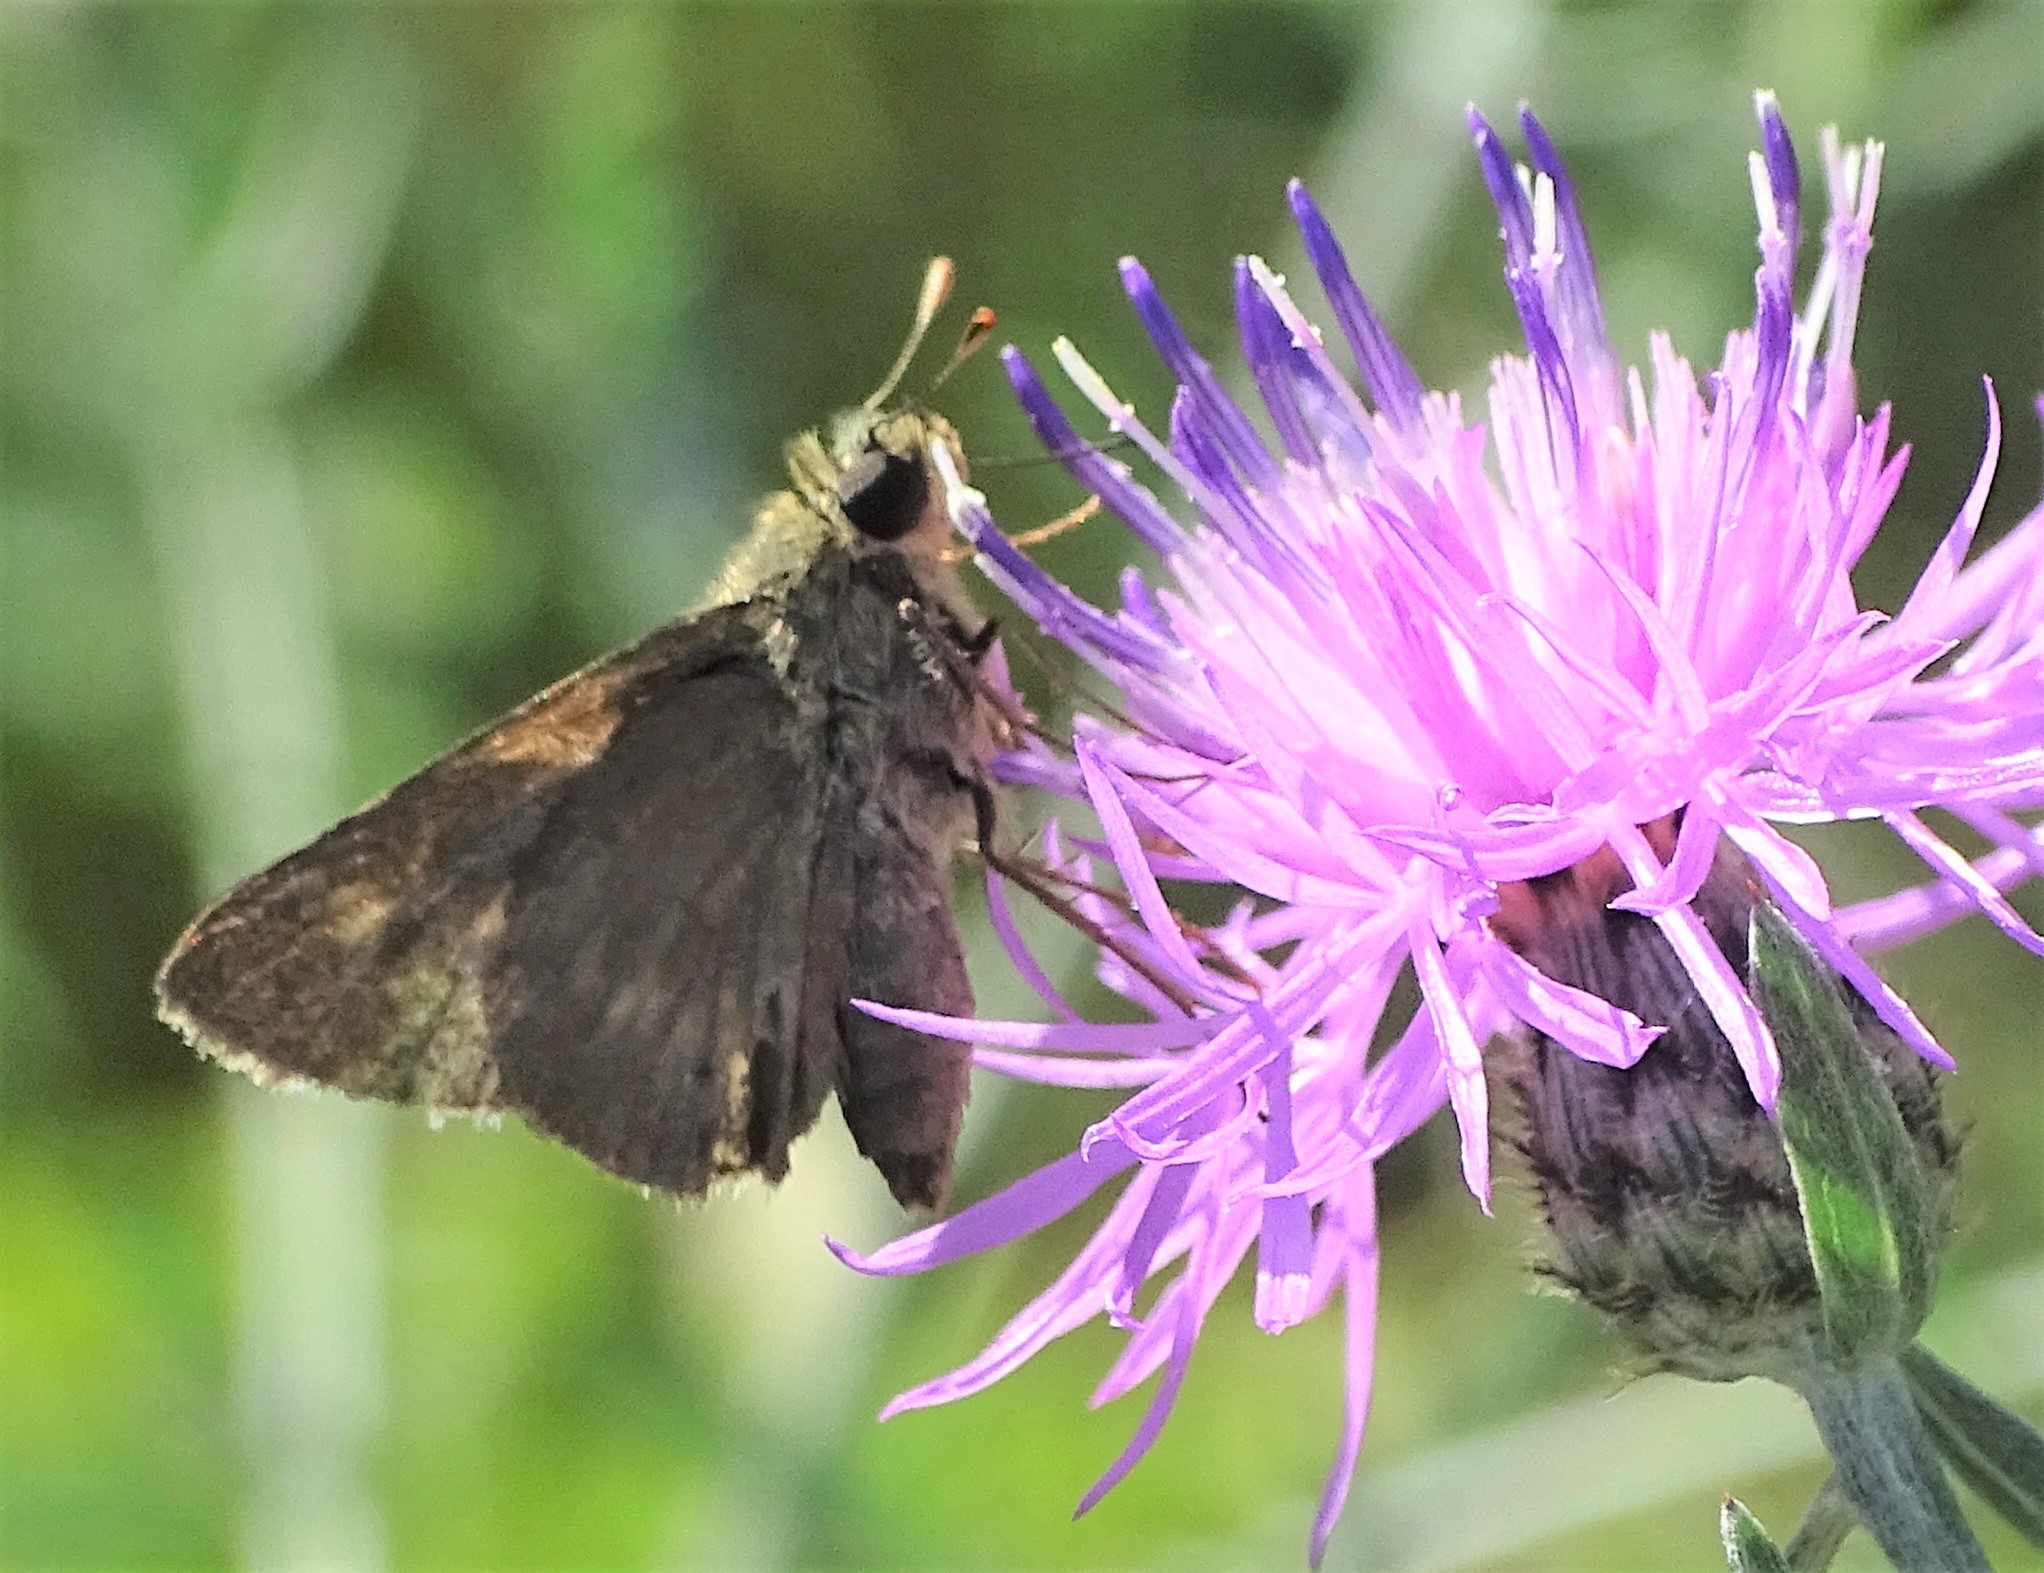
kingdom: Animalia
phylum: Arthropoda
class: Insecta
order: Lepidoptera
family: Hesperiidae
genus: Polites
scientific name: Polites egeremet
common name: Northern broken-dash
